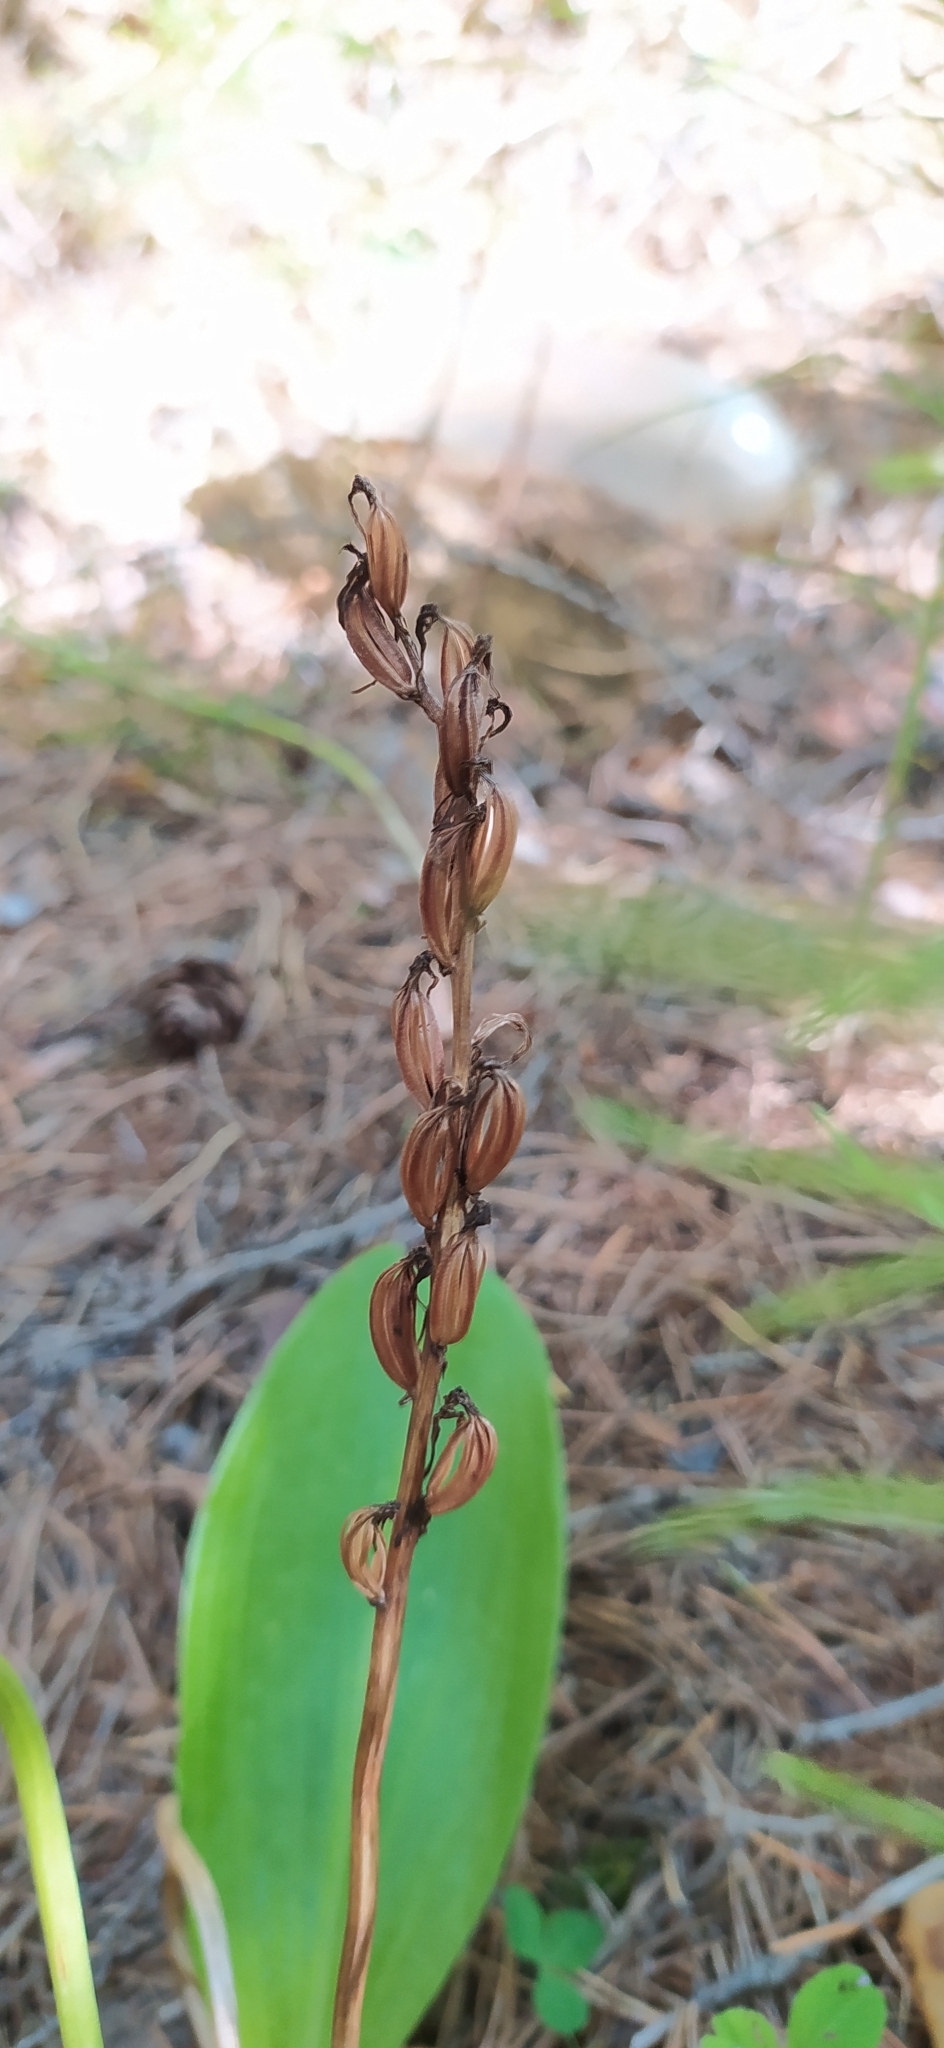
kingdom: Plantae
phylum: Tracheophyta
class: Liliopsida
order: Asparagales
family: Orchidaceae
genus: Platanthera
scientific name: Platanthera bifolia
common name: Lesser butterfly-orchid
